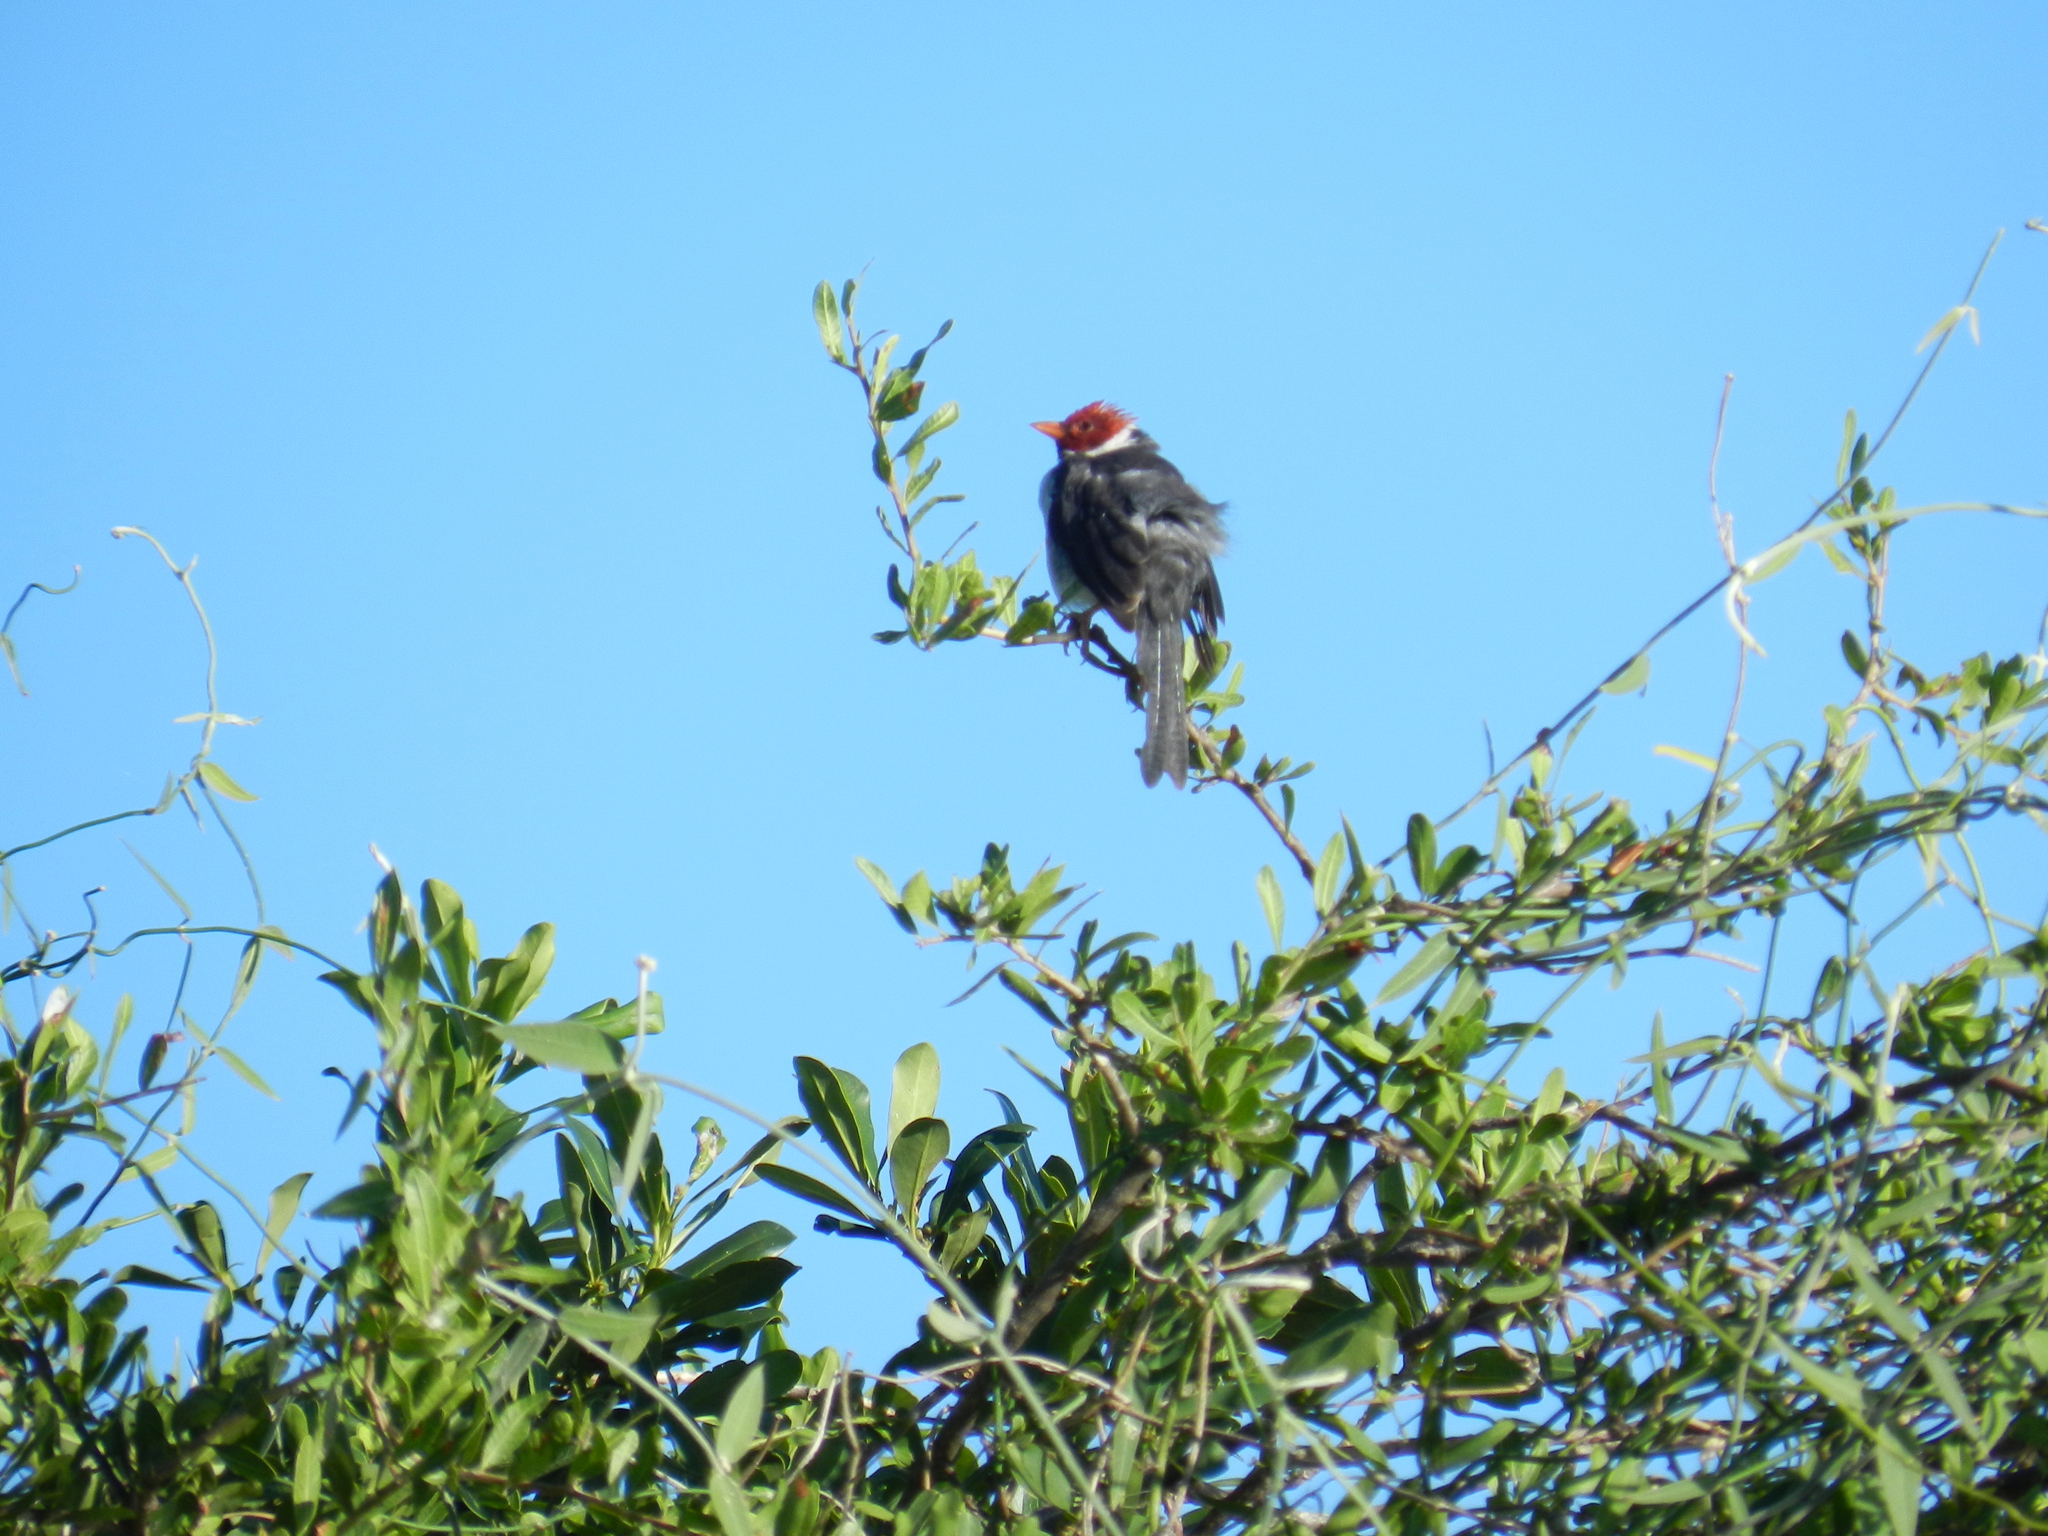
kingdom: Animalia
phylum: Chordata
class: Aves
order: Passeriformes
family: Thraupidae
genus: Paroaria
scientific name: Paroaria capitata
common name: Yellow-billed cardinal
